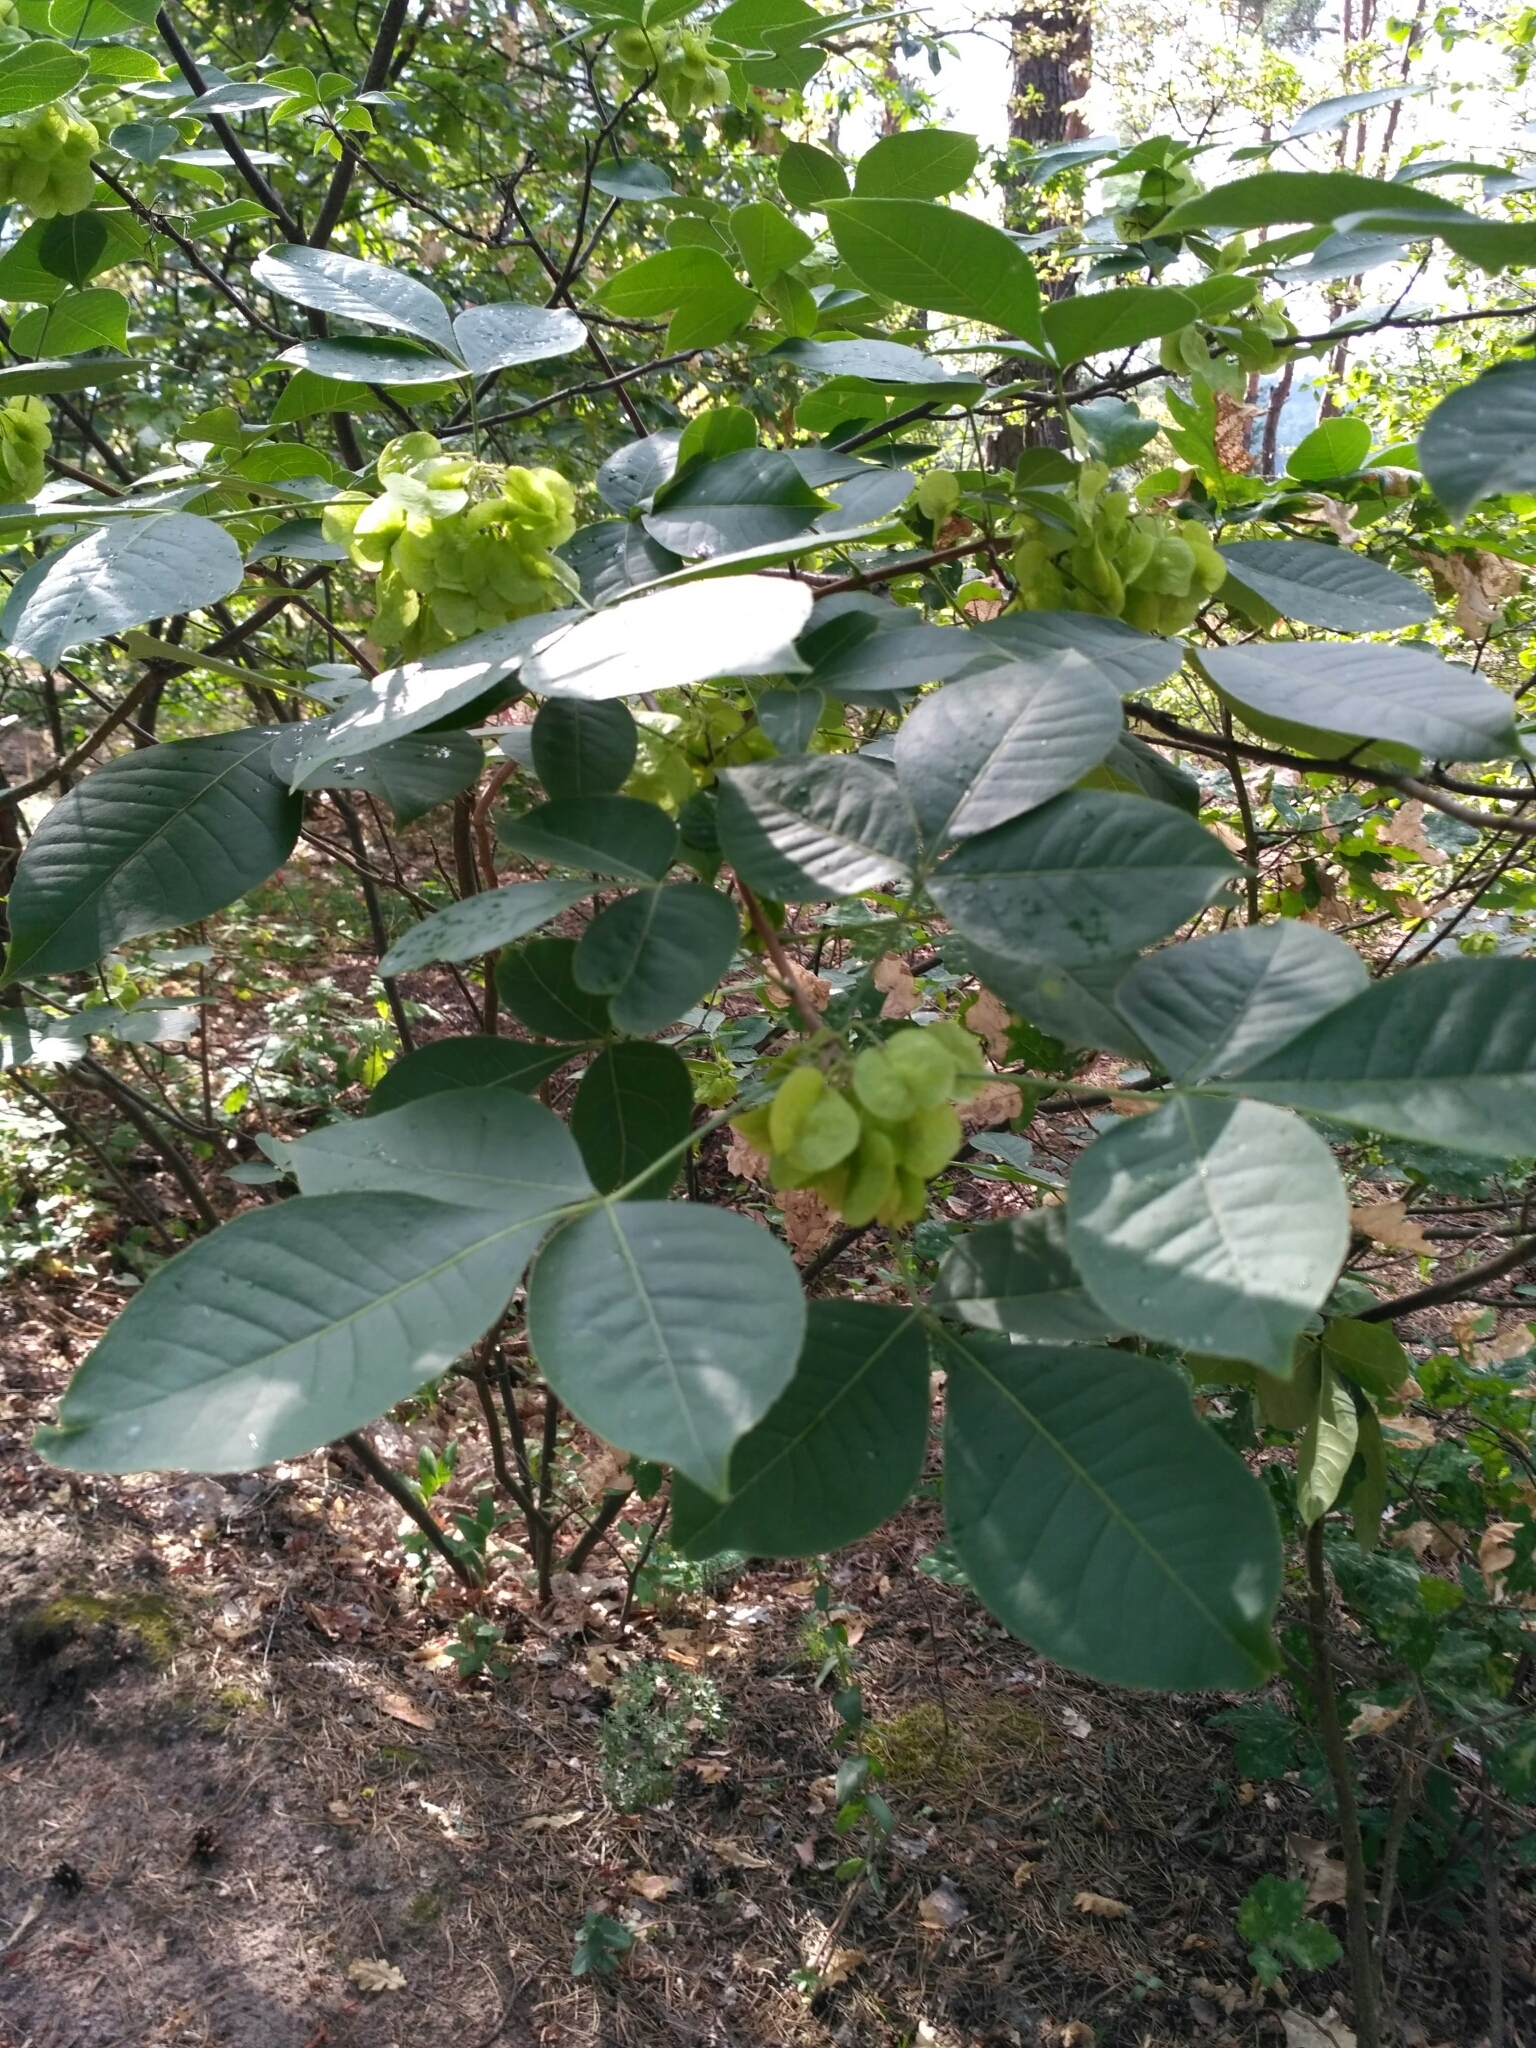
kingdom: Plantae
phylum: Tracheophyta
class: Magnoliopsida
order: Sapindales
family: Rutaceae
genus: Ptelea
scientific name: Ptelea trifoliata
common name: Common hop-tree
